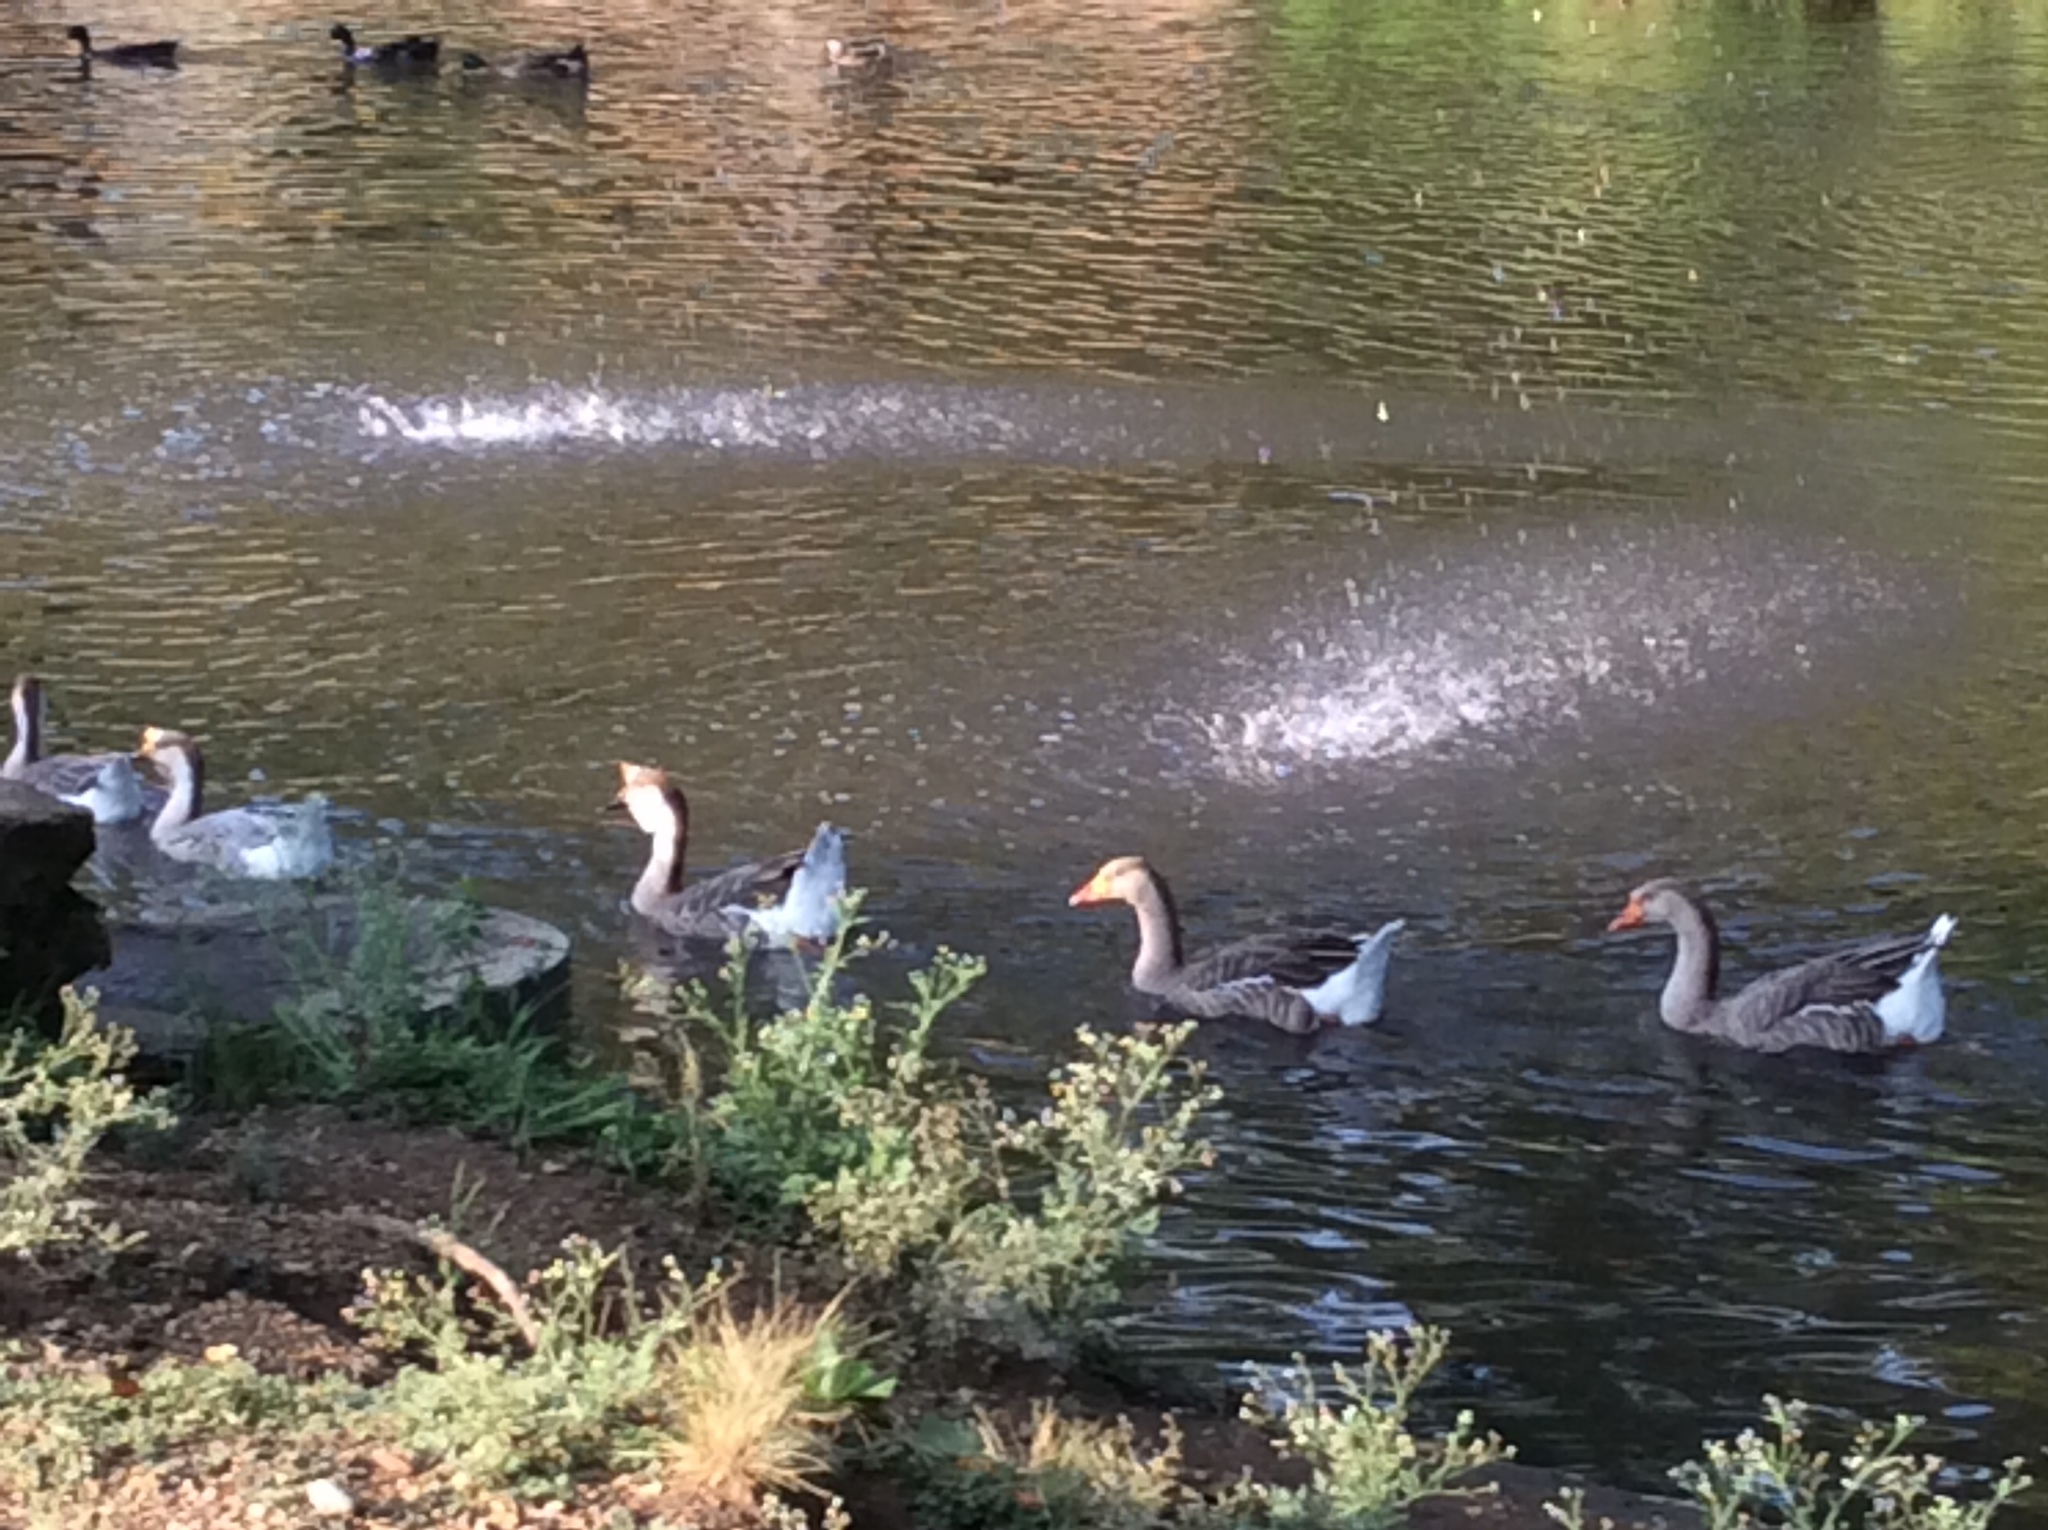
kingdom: Animalia
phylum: Chordata
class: Aves
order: Anseriformes
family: Anatidae
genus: Anser
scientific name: Anser
